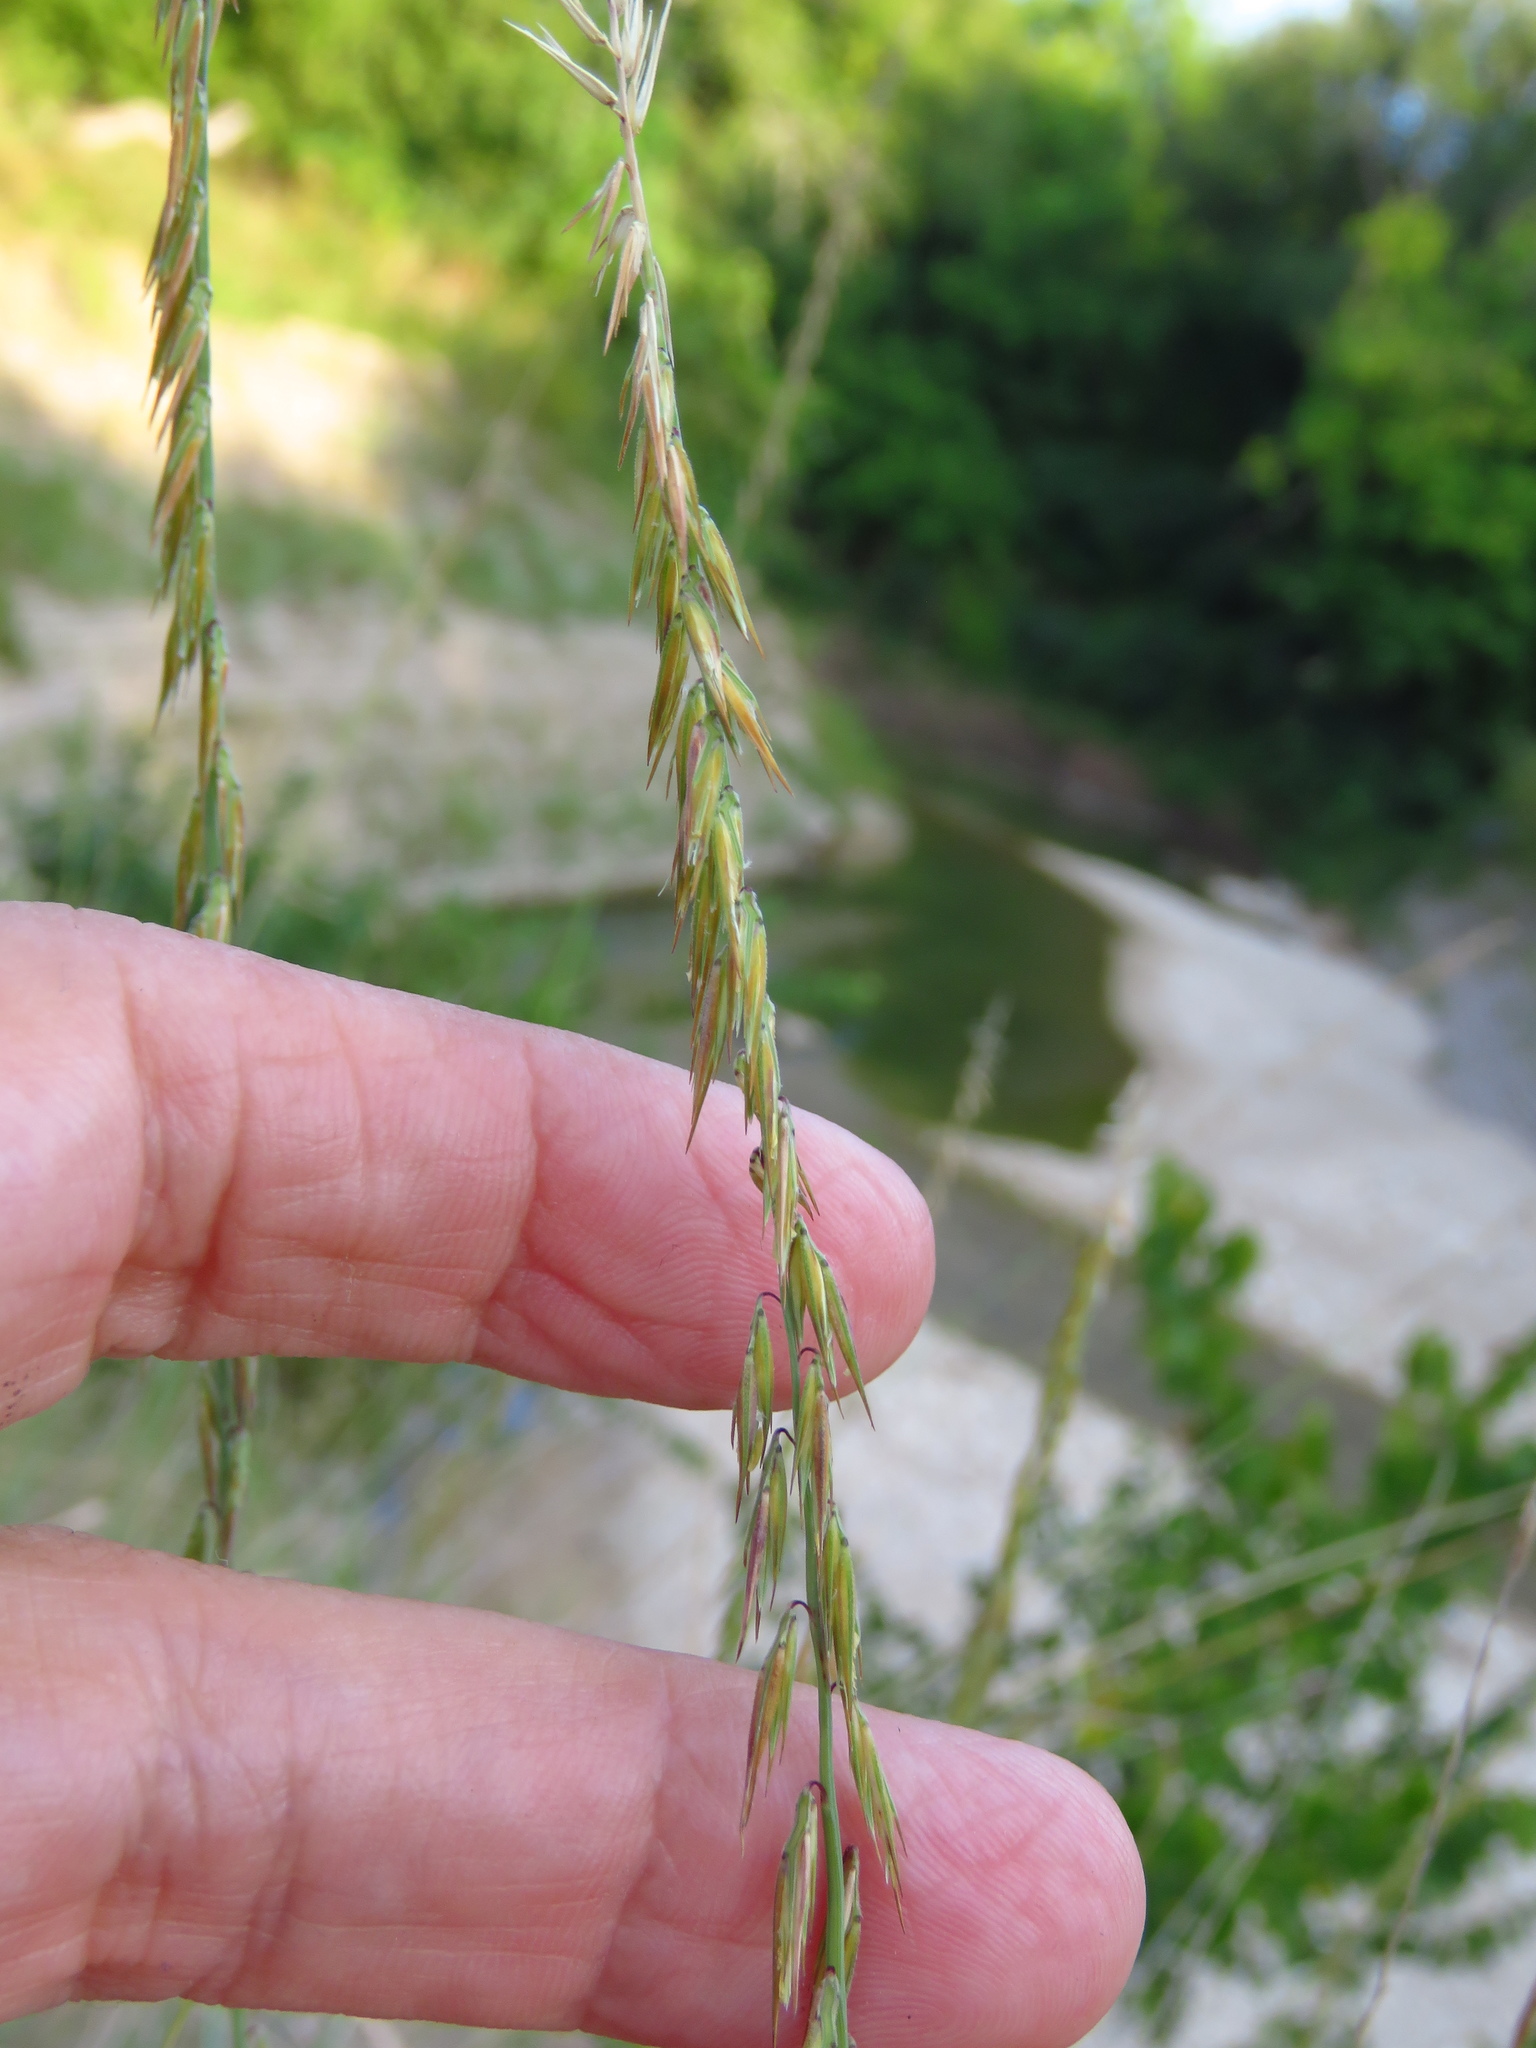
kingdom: Plantae
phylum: Tracheophyta
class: Liliopsida
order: Poales
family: Poaceae
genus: Bouteloua
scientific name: Bouteloua curtipendula
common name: Side-oats grama
